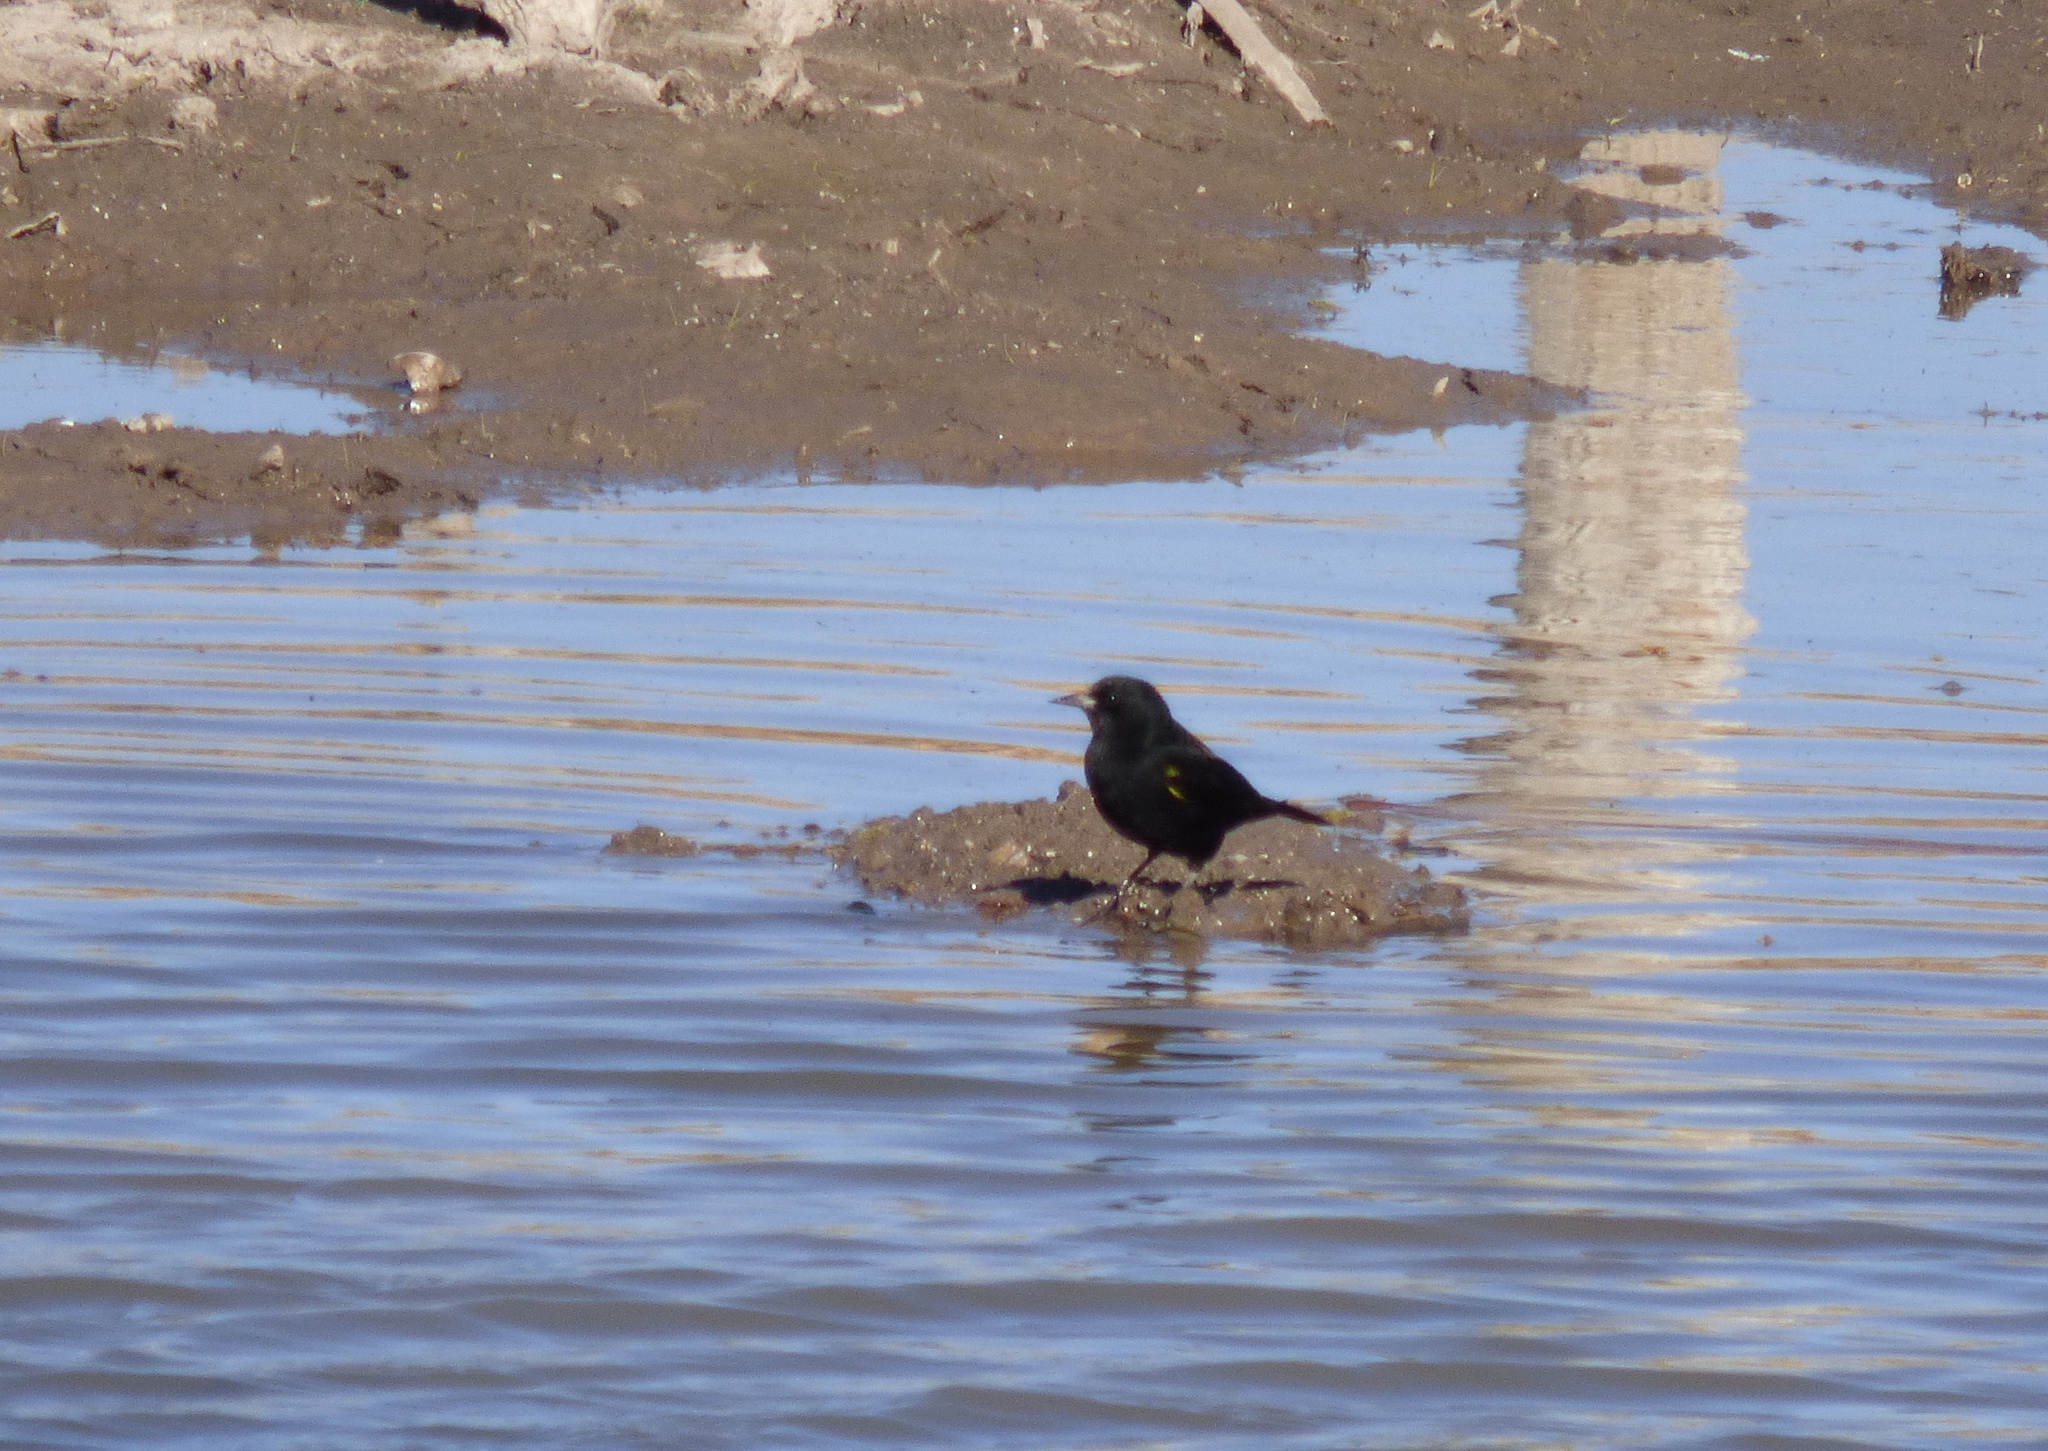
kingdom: Animalia
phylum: Chordata
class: Aves
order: Passeriformes
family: Icteridae
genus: Agelasticus
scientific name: Agelasticus thilius
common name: Yellow-winged blackbird
